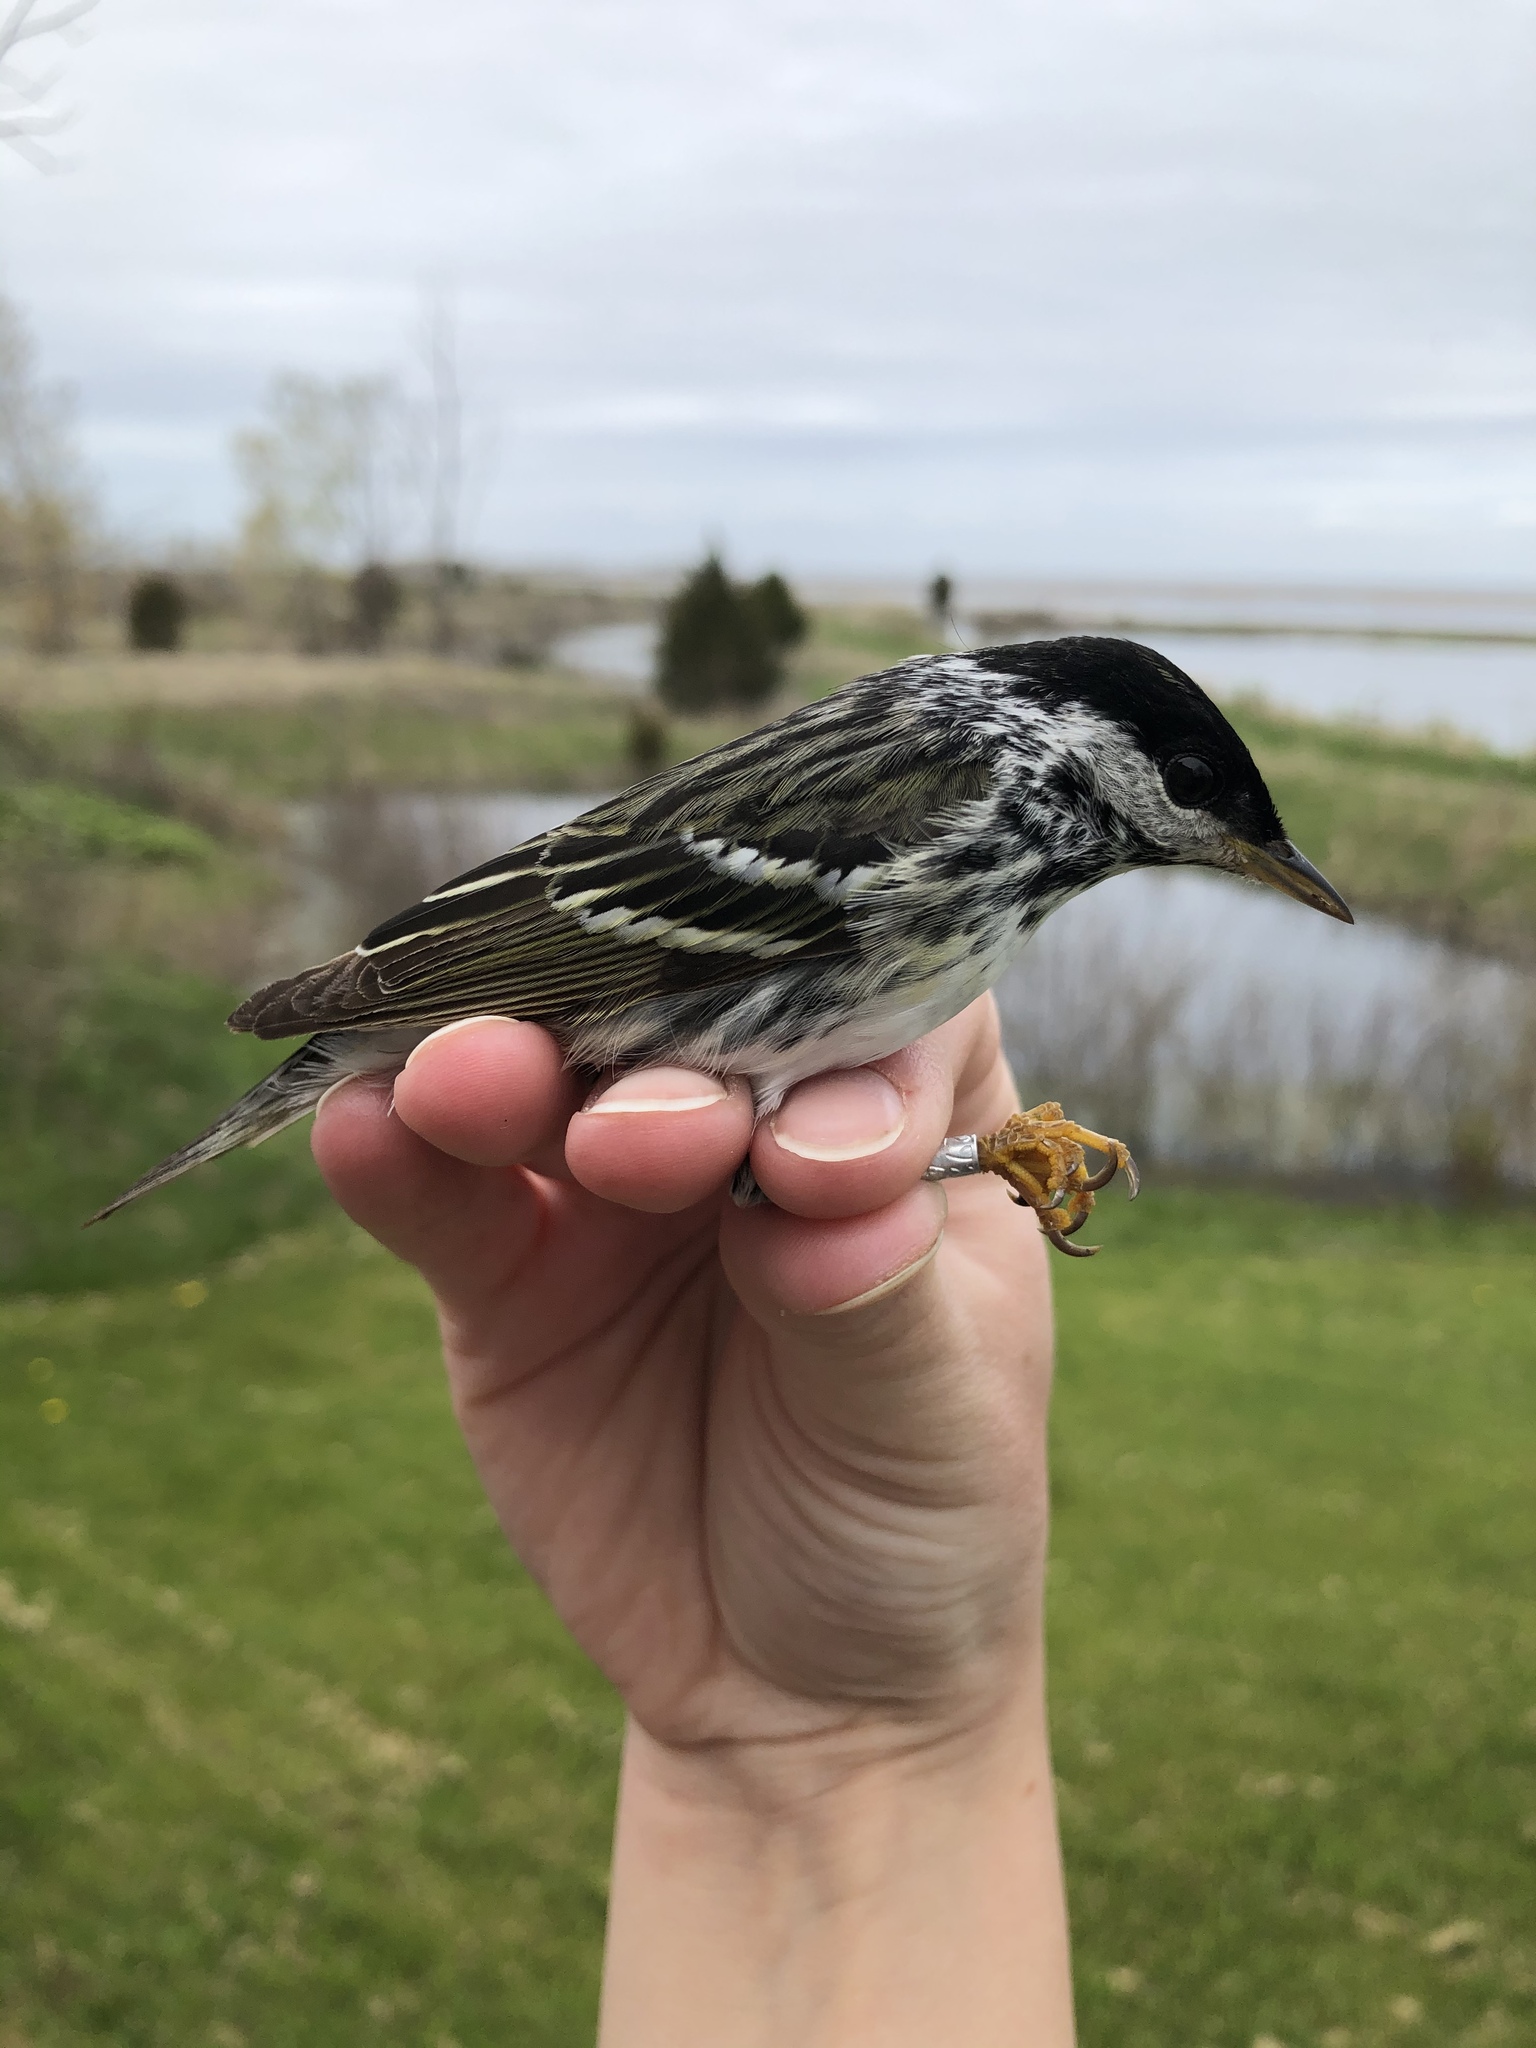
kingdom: Animalia
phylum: Chordata
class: Aves
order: Passeriformes
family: Parulidae
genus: Setophaga
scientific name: Setophaga striata
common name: Blackpoll warbler
